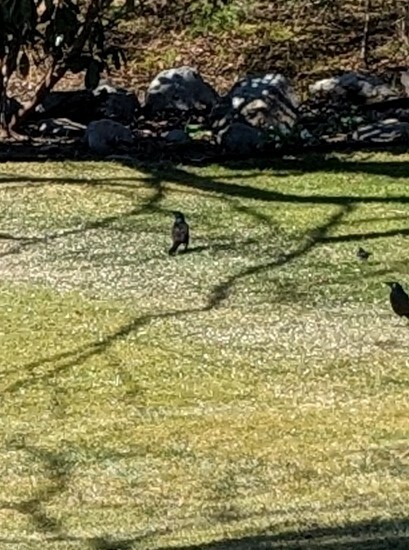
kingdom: Animalia
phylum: Chordata
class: Aves
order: Passeriformes
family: Icteridae
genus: Quiscalus
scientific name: Quiscalus quiscula
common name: Common grackle
